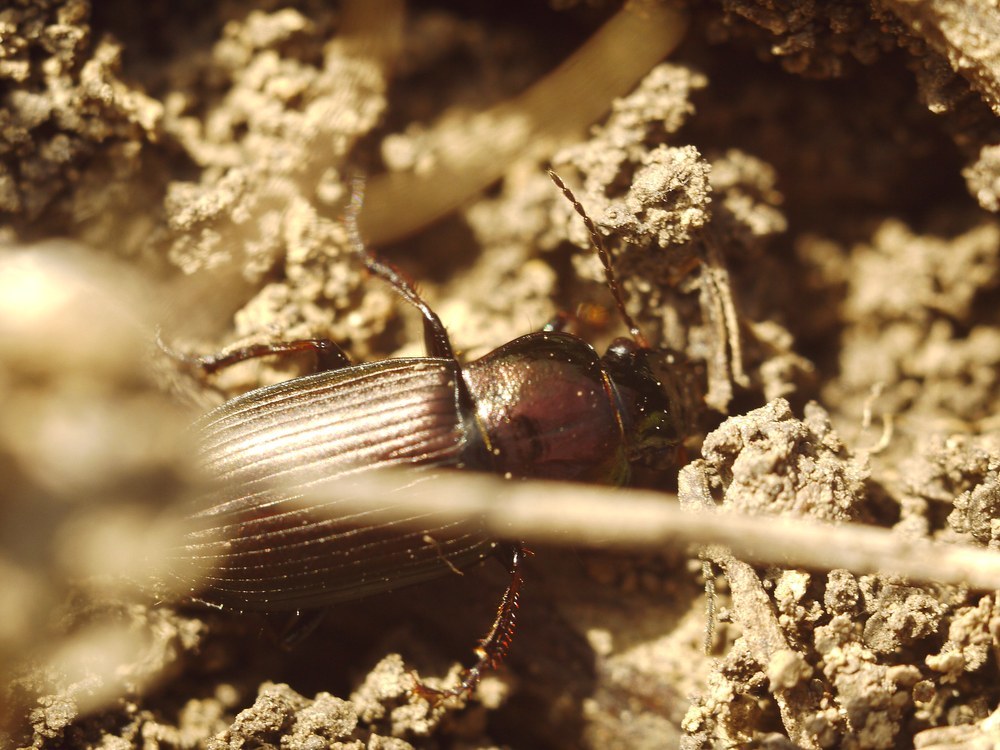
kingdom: Animalia
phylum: Arthropoda
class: Insecta
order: Coleoptera
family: Carabidae
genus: Harpalus
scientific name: Harpalus distinguendus
